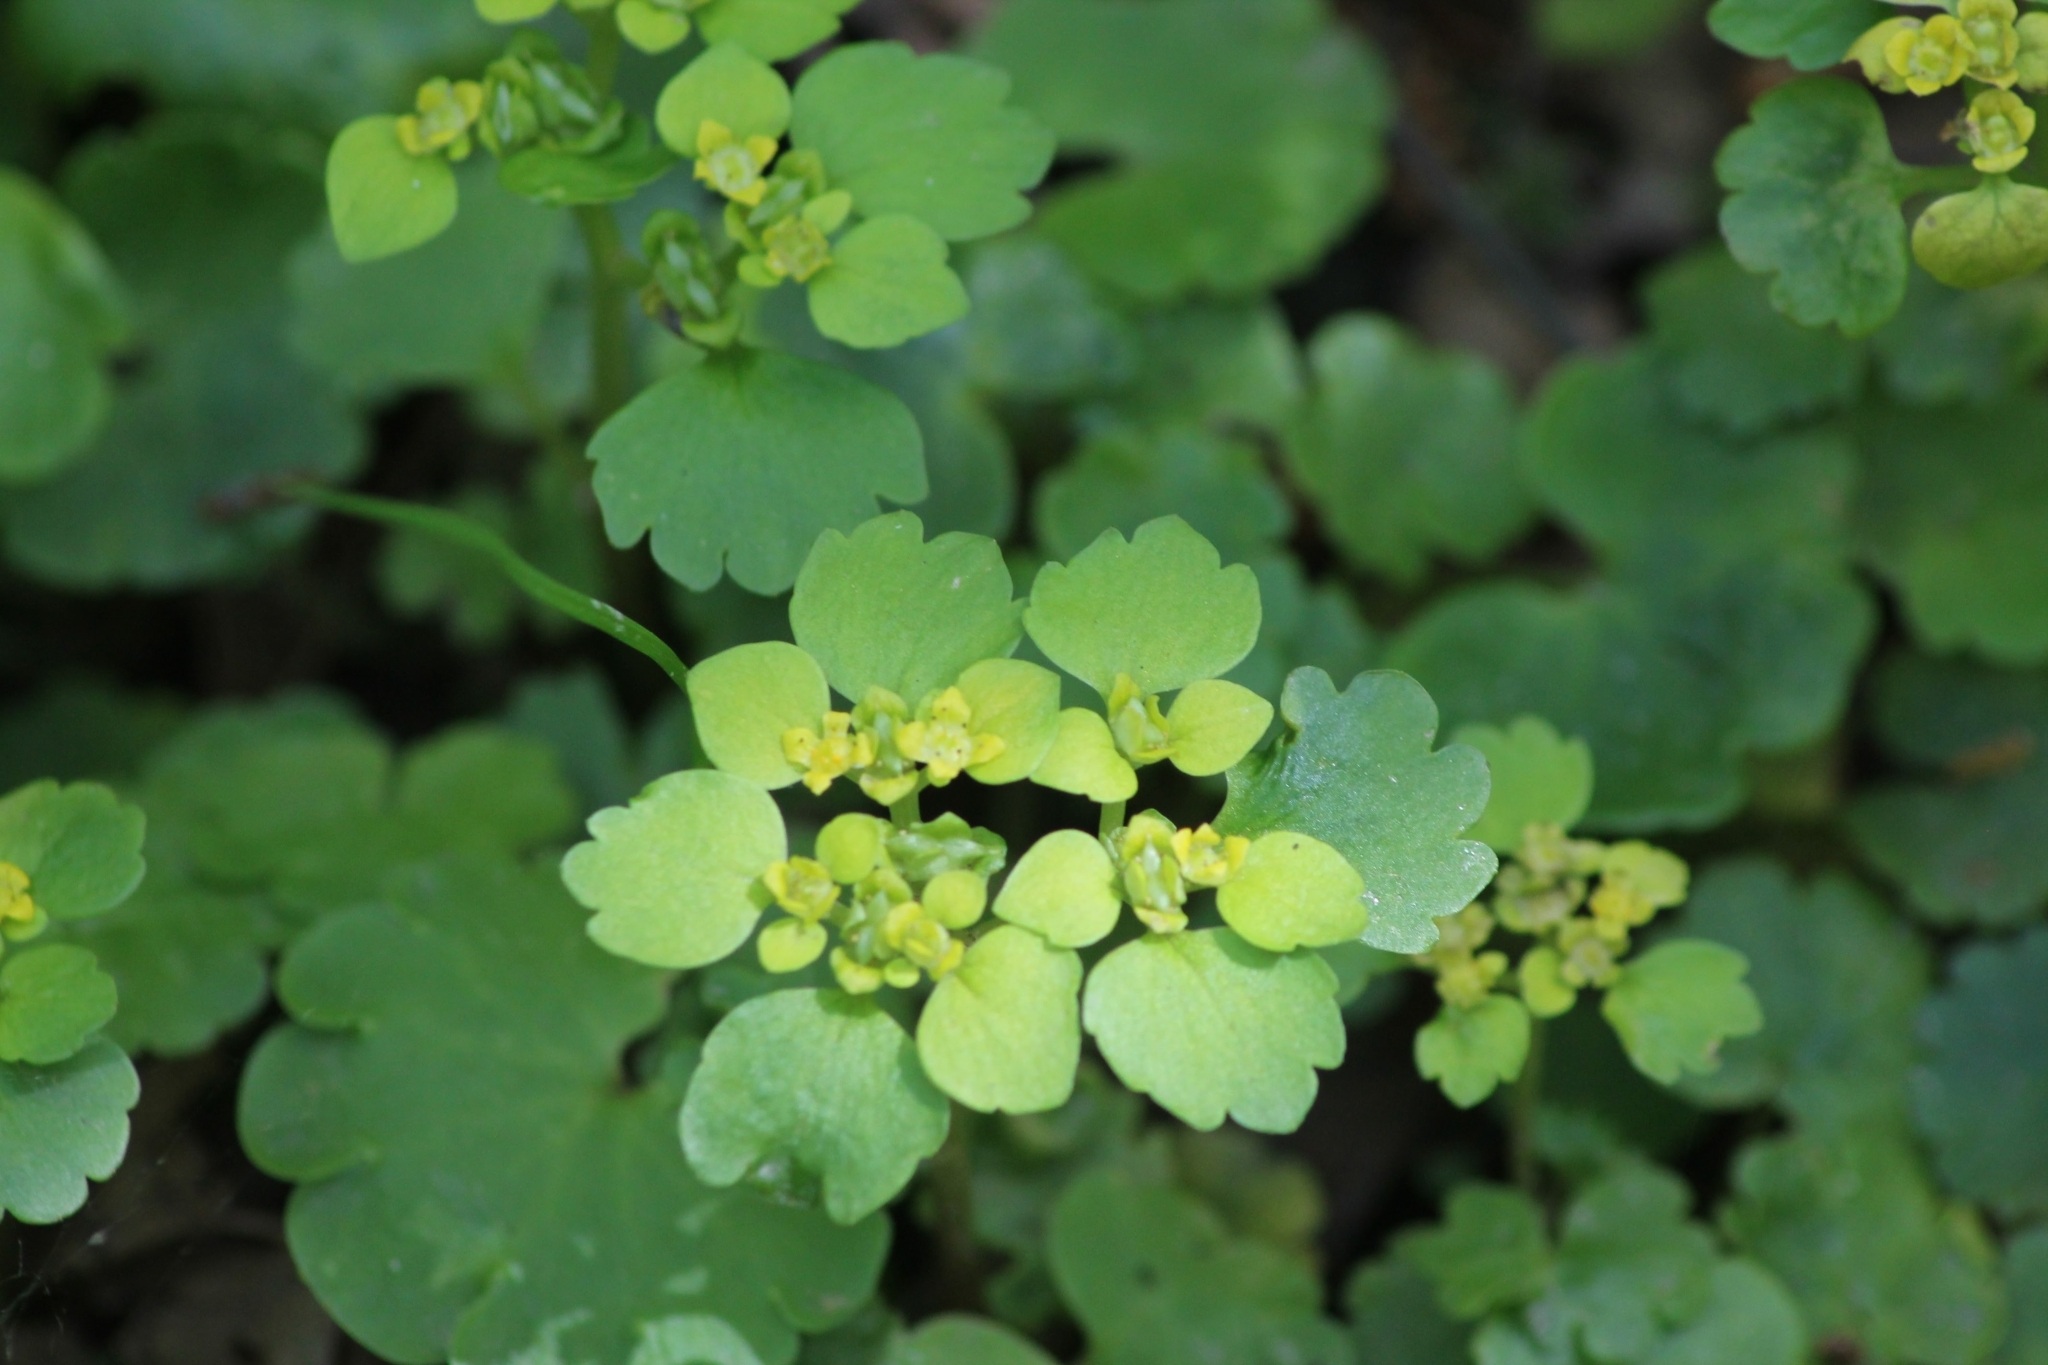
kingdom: Plantae
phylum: Tracheophyta
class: Magnoliopsida
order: Saxifragales
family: Saxifragaceae
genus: Chrysosplenium
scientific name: Chrysosplenium alternifolium
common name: Alternate-leaved golden-saxifrage
